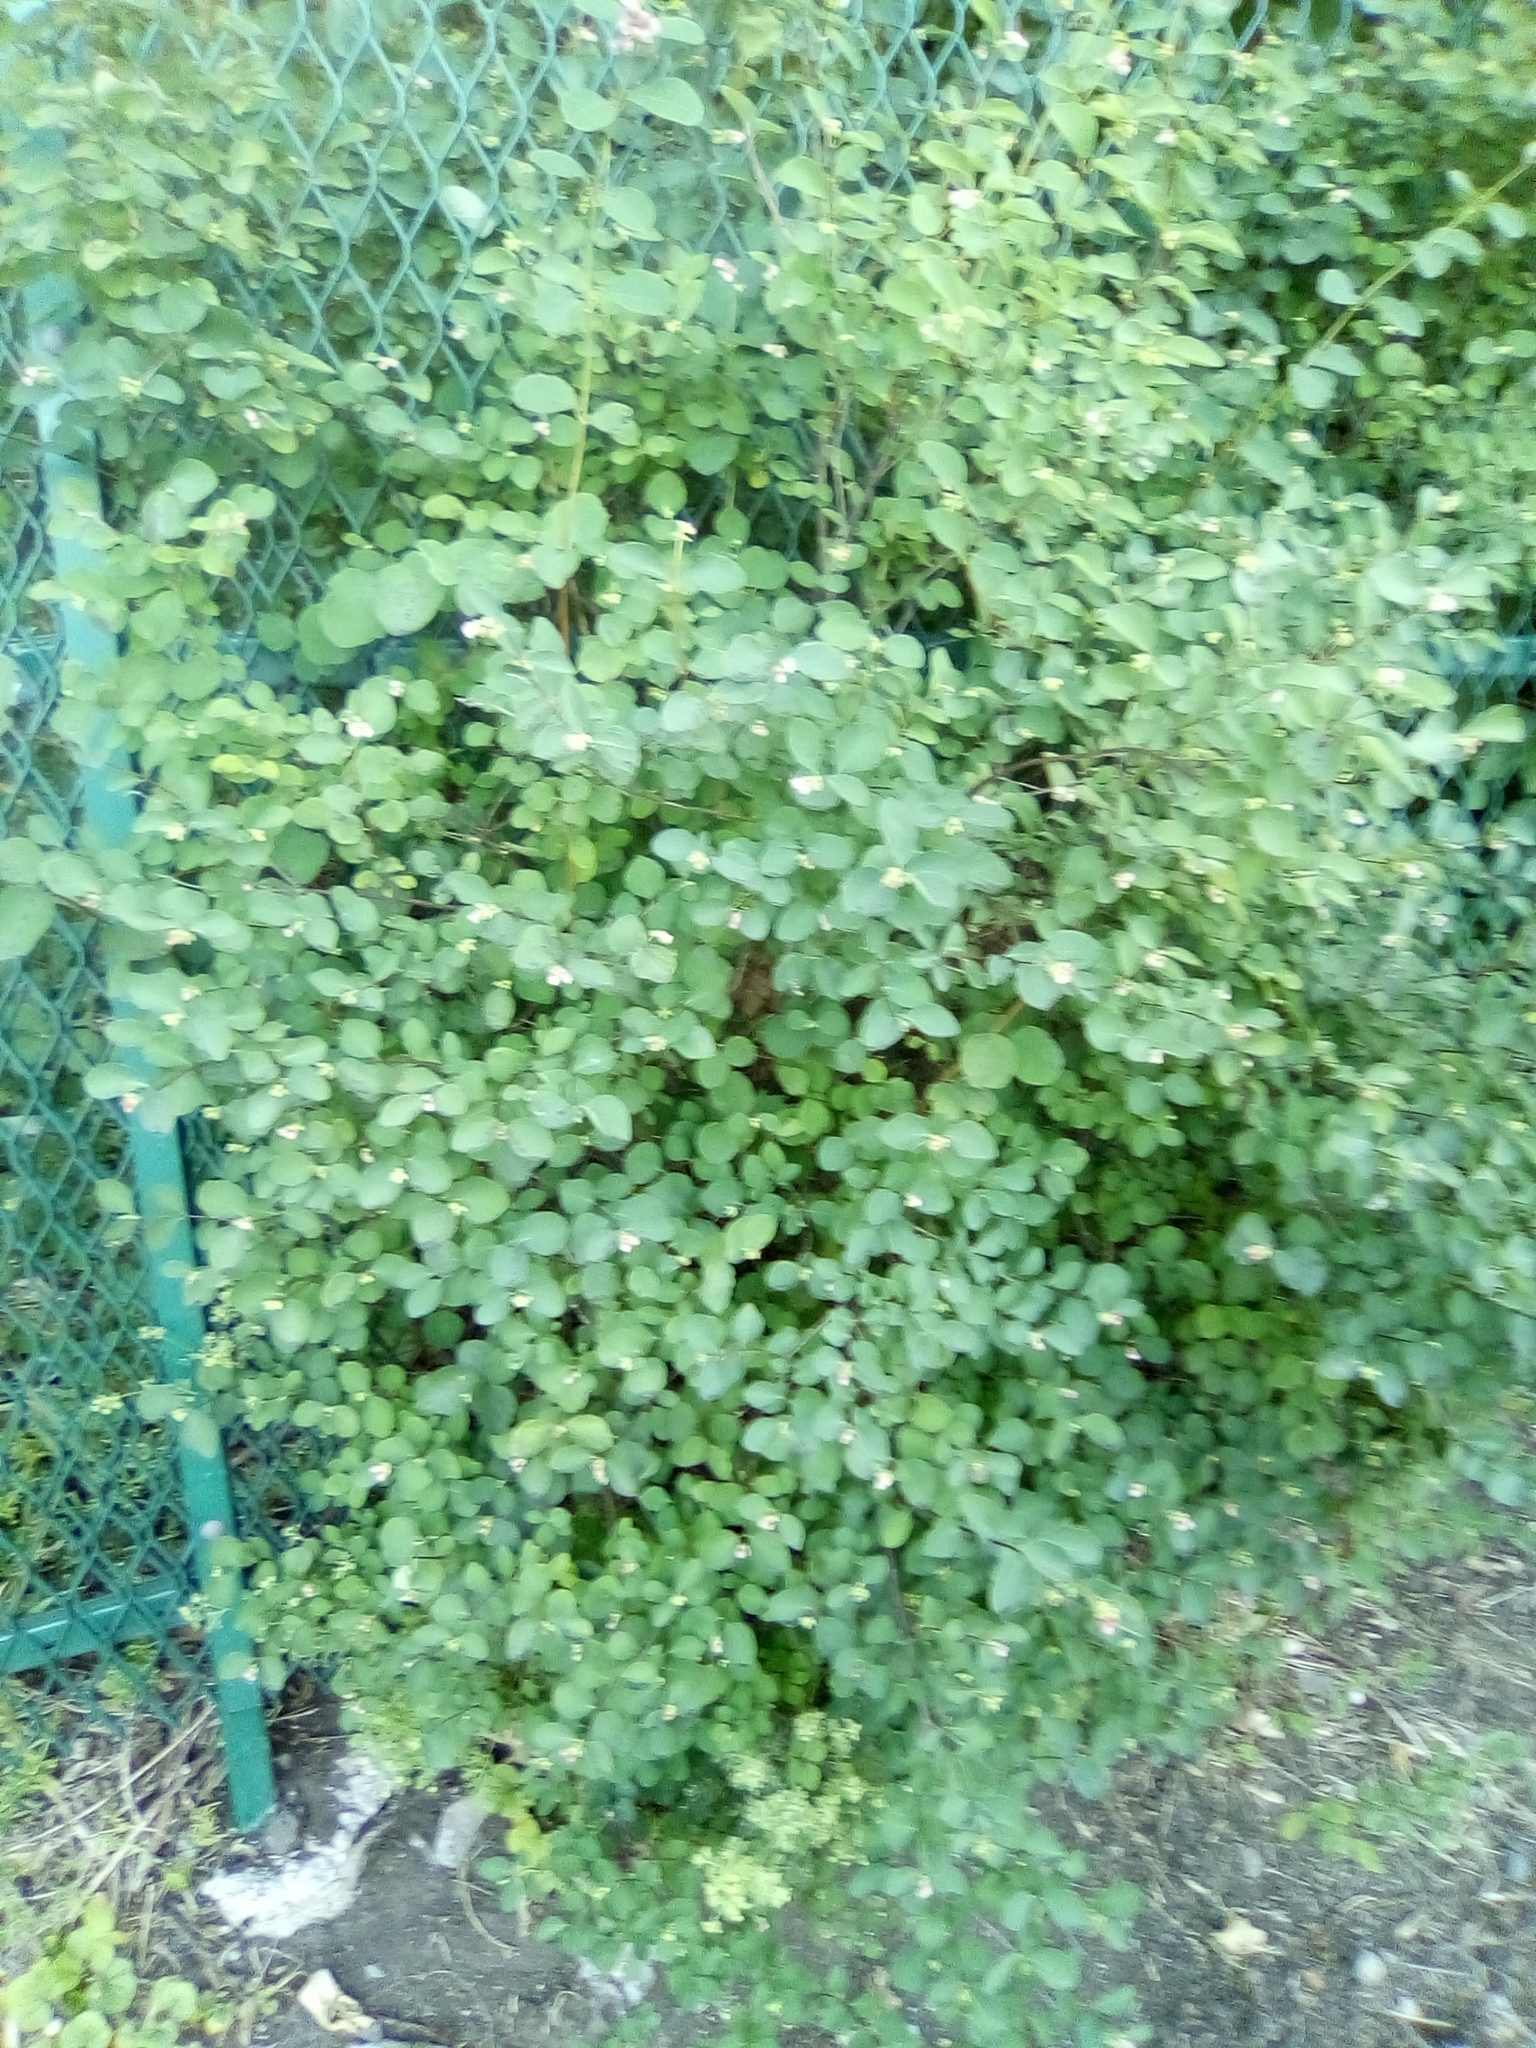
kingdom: Plantae
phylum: Tracheophyta
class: Magnoliopsida
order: Dipsacales
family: Caprifoliaceae
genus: Symphoricarpos
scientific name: Symphoricarpos albus
